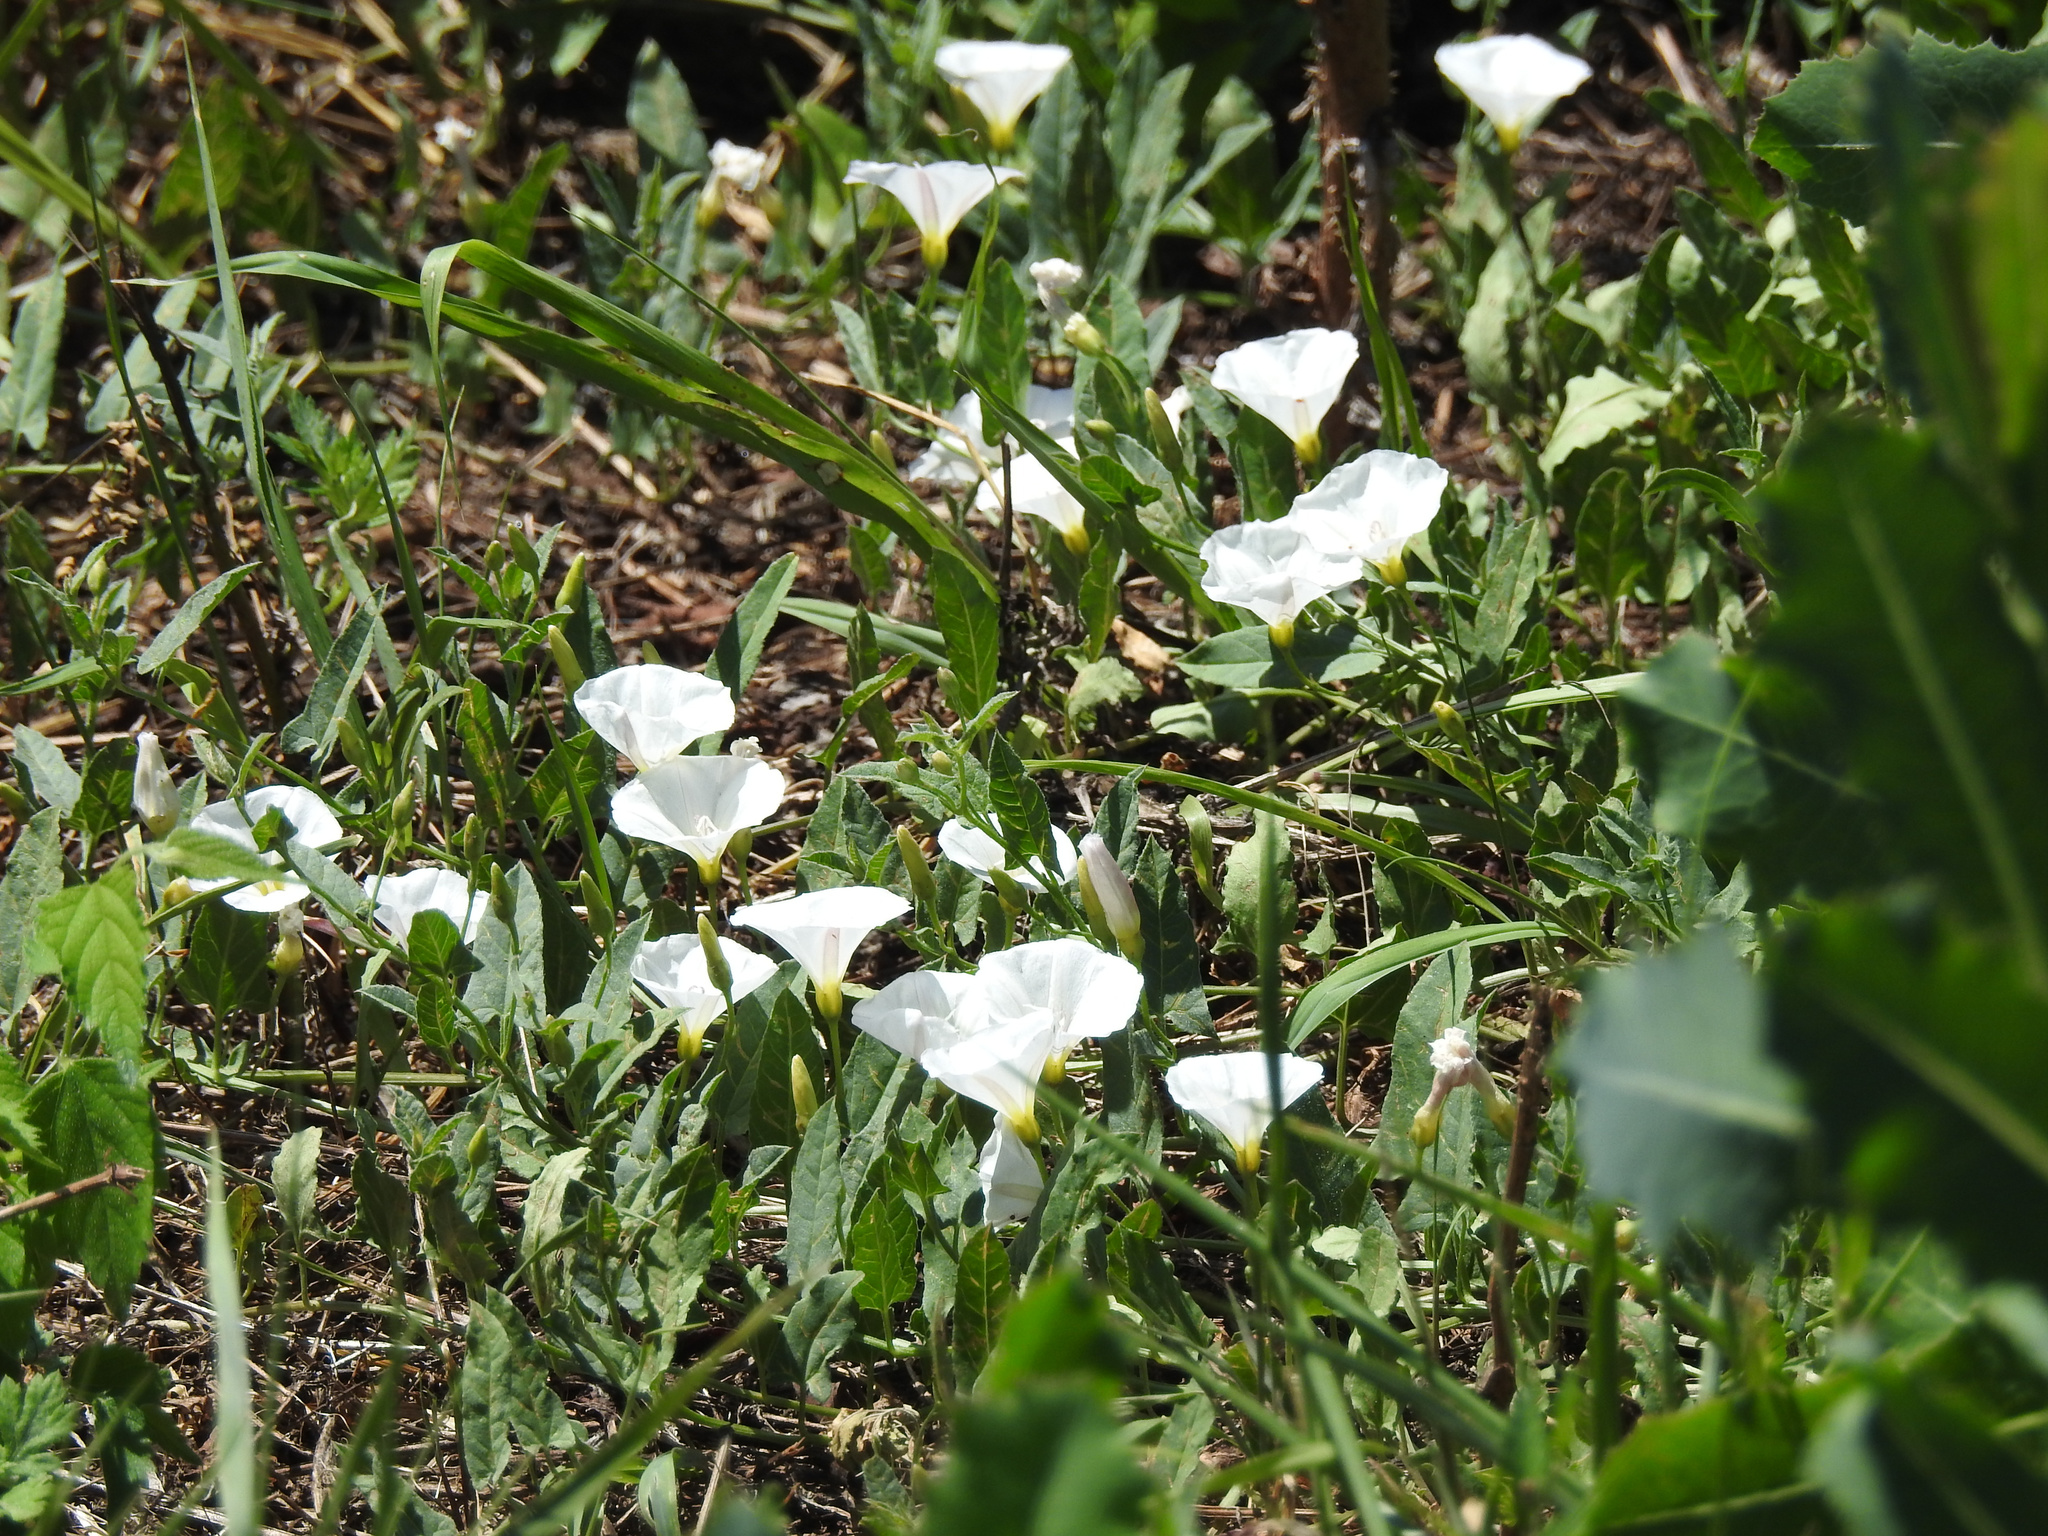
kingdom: Plantae
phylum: Tracheophyta
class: Magnoliopsida
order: Solanales
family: Convolvulaceae
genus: Convolvulus
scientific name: Convolvulus arvensis
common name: Field bindweed
